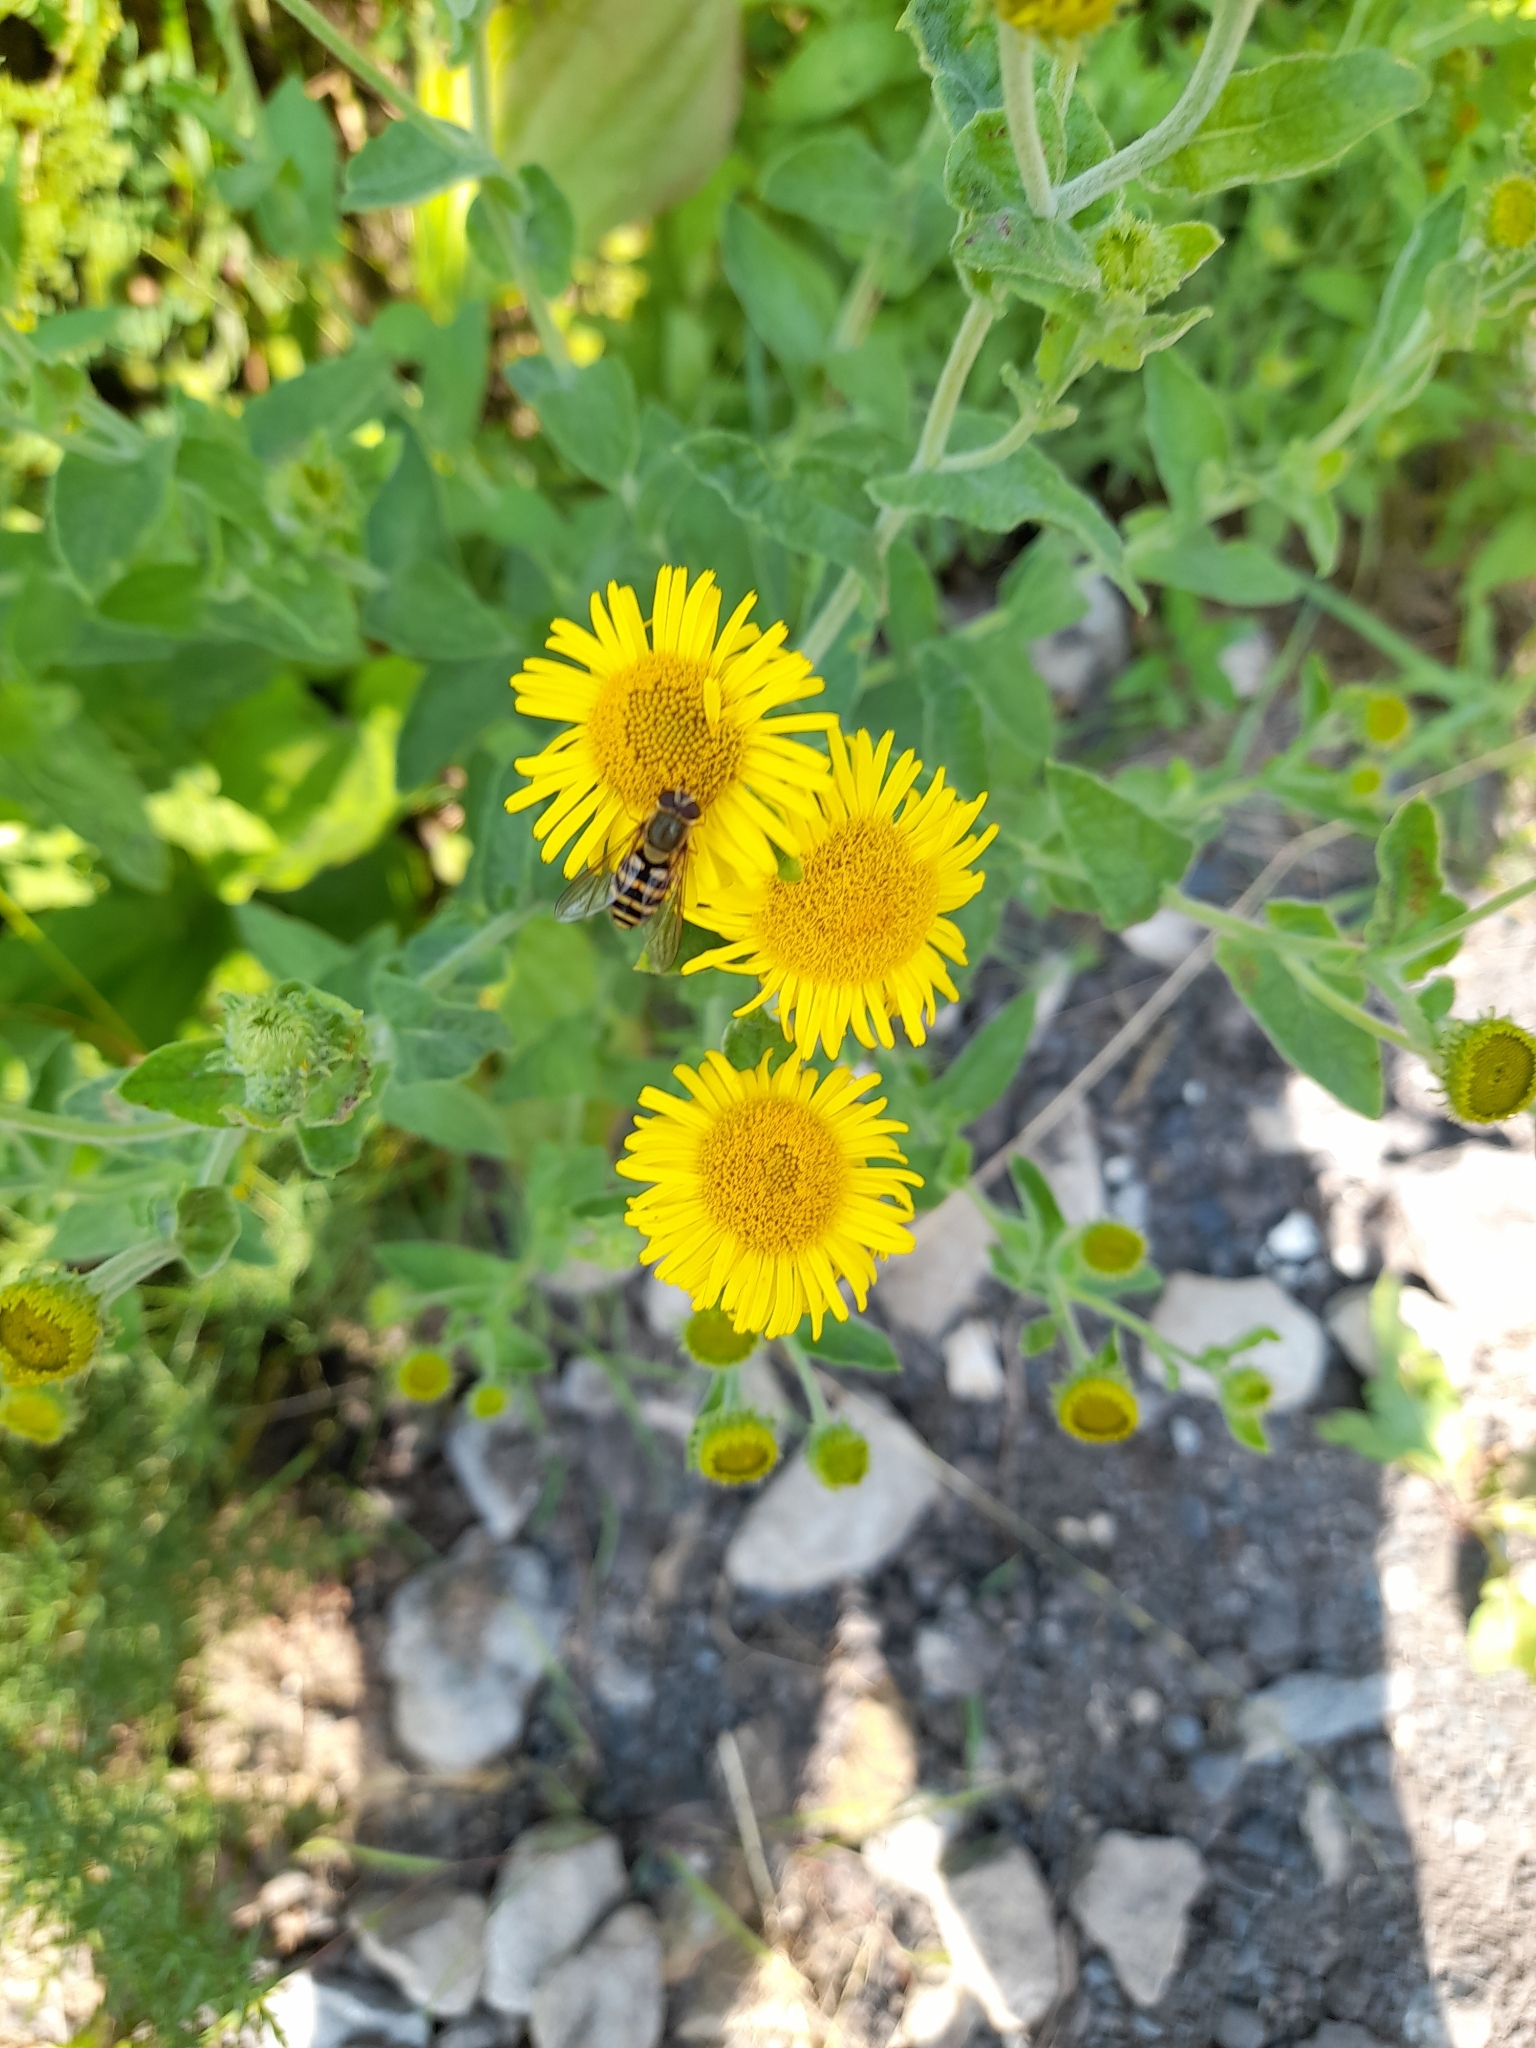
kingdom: Plantae
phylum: Tracheophyta
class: Magnoliopsida
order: Asterales
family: Asteraceae
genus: Pulicaria
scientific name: Pulicaria dysenterica
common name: Common fleabane
